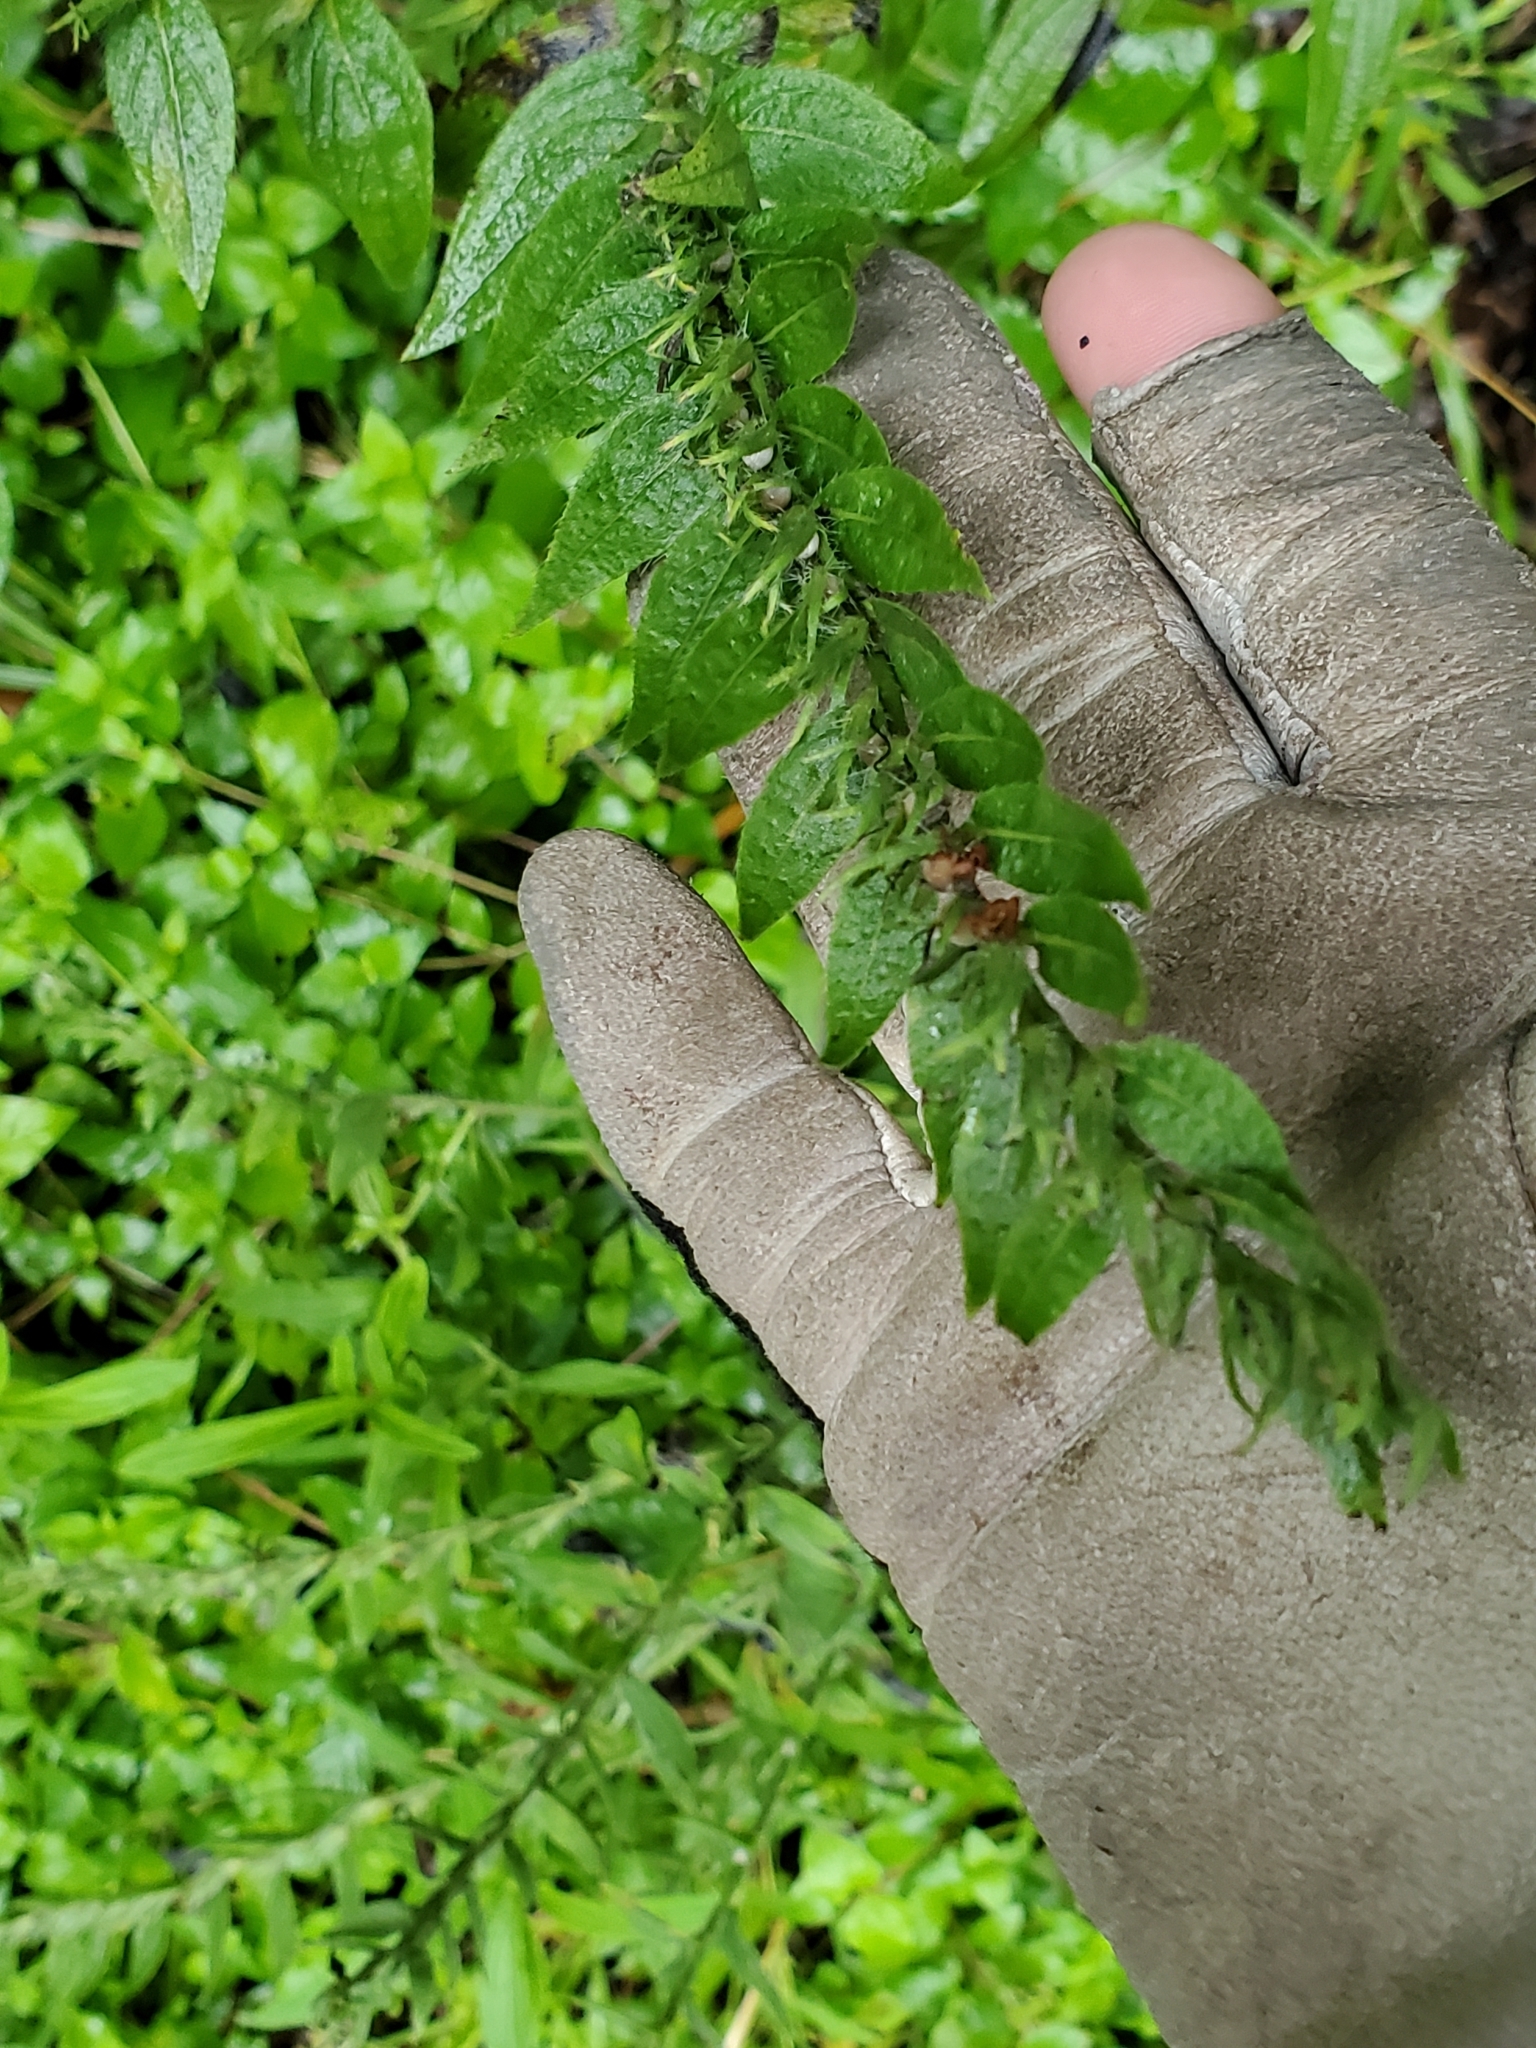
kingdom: Plantae
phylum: Tracheophyta
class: Magnoliopsida
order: Boraginales
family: Boraginaceae
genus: Lithospermum
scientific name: Lithospermum caroliniense
